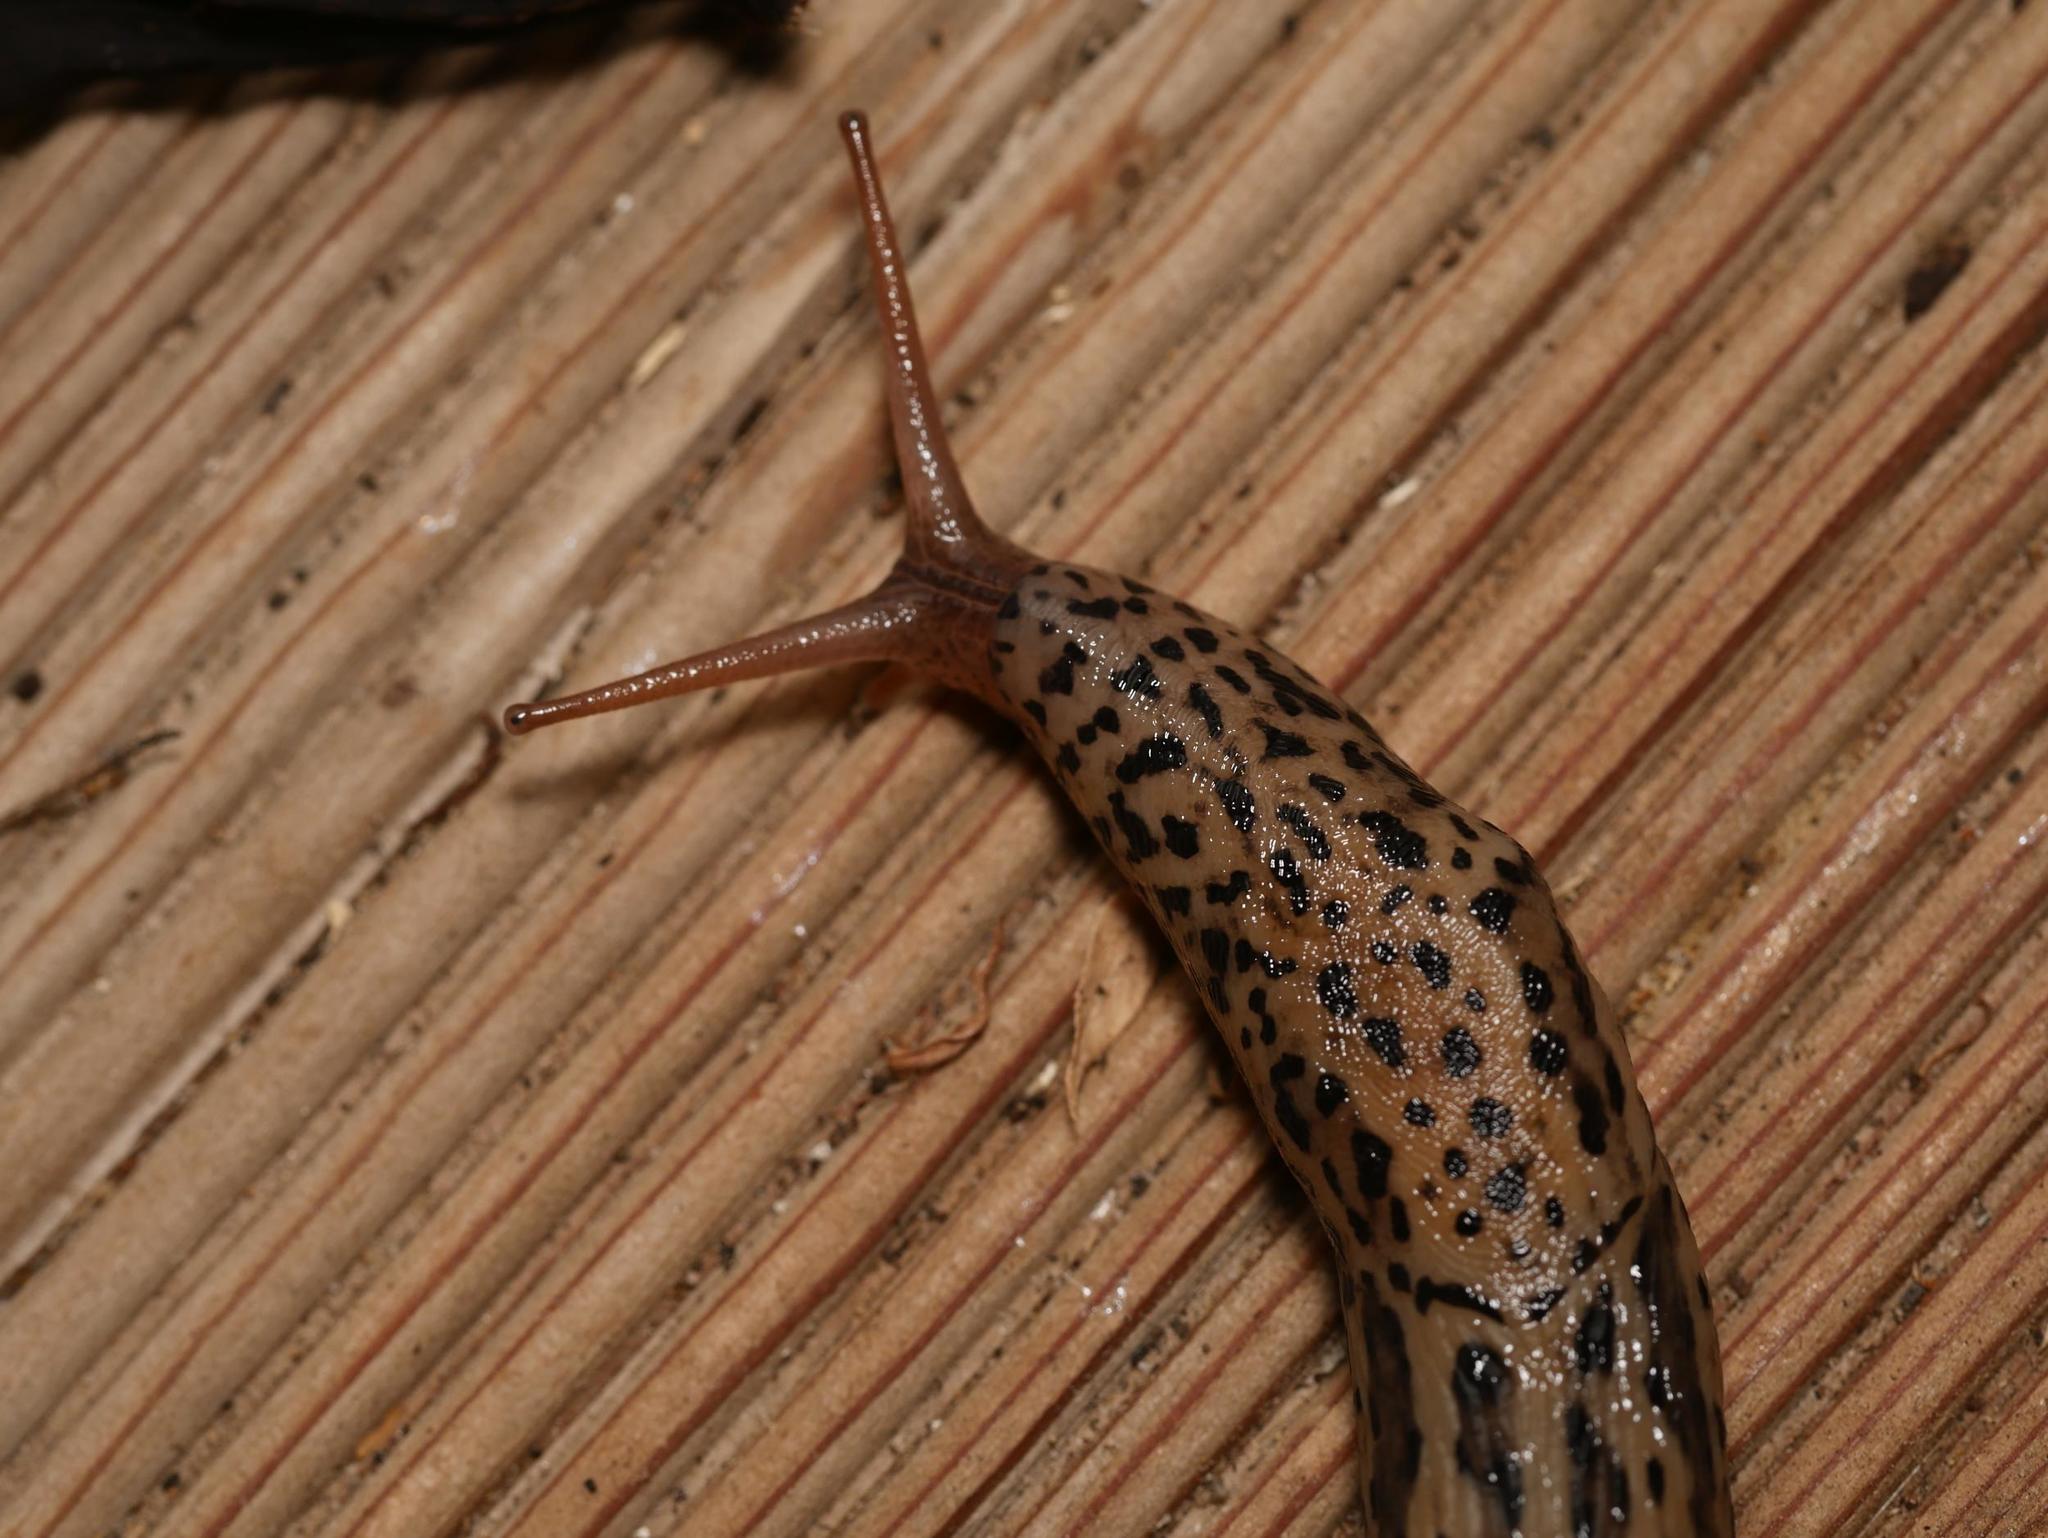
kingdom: Animalia
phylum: Mollusca
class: Gastropoda
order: Stylommatophora
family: Limacidae
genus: Limax
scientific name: Limax maximus
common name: Great grey slug
